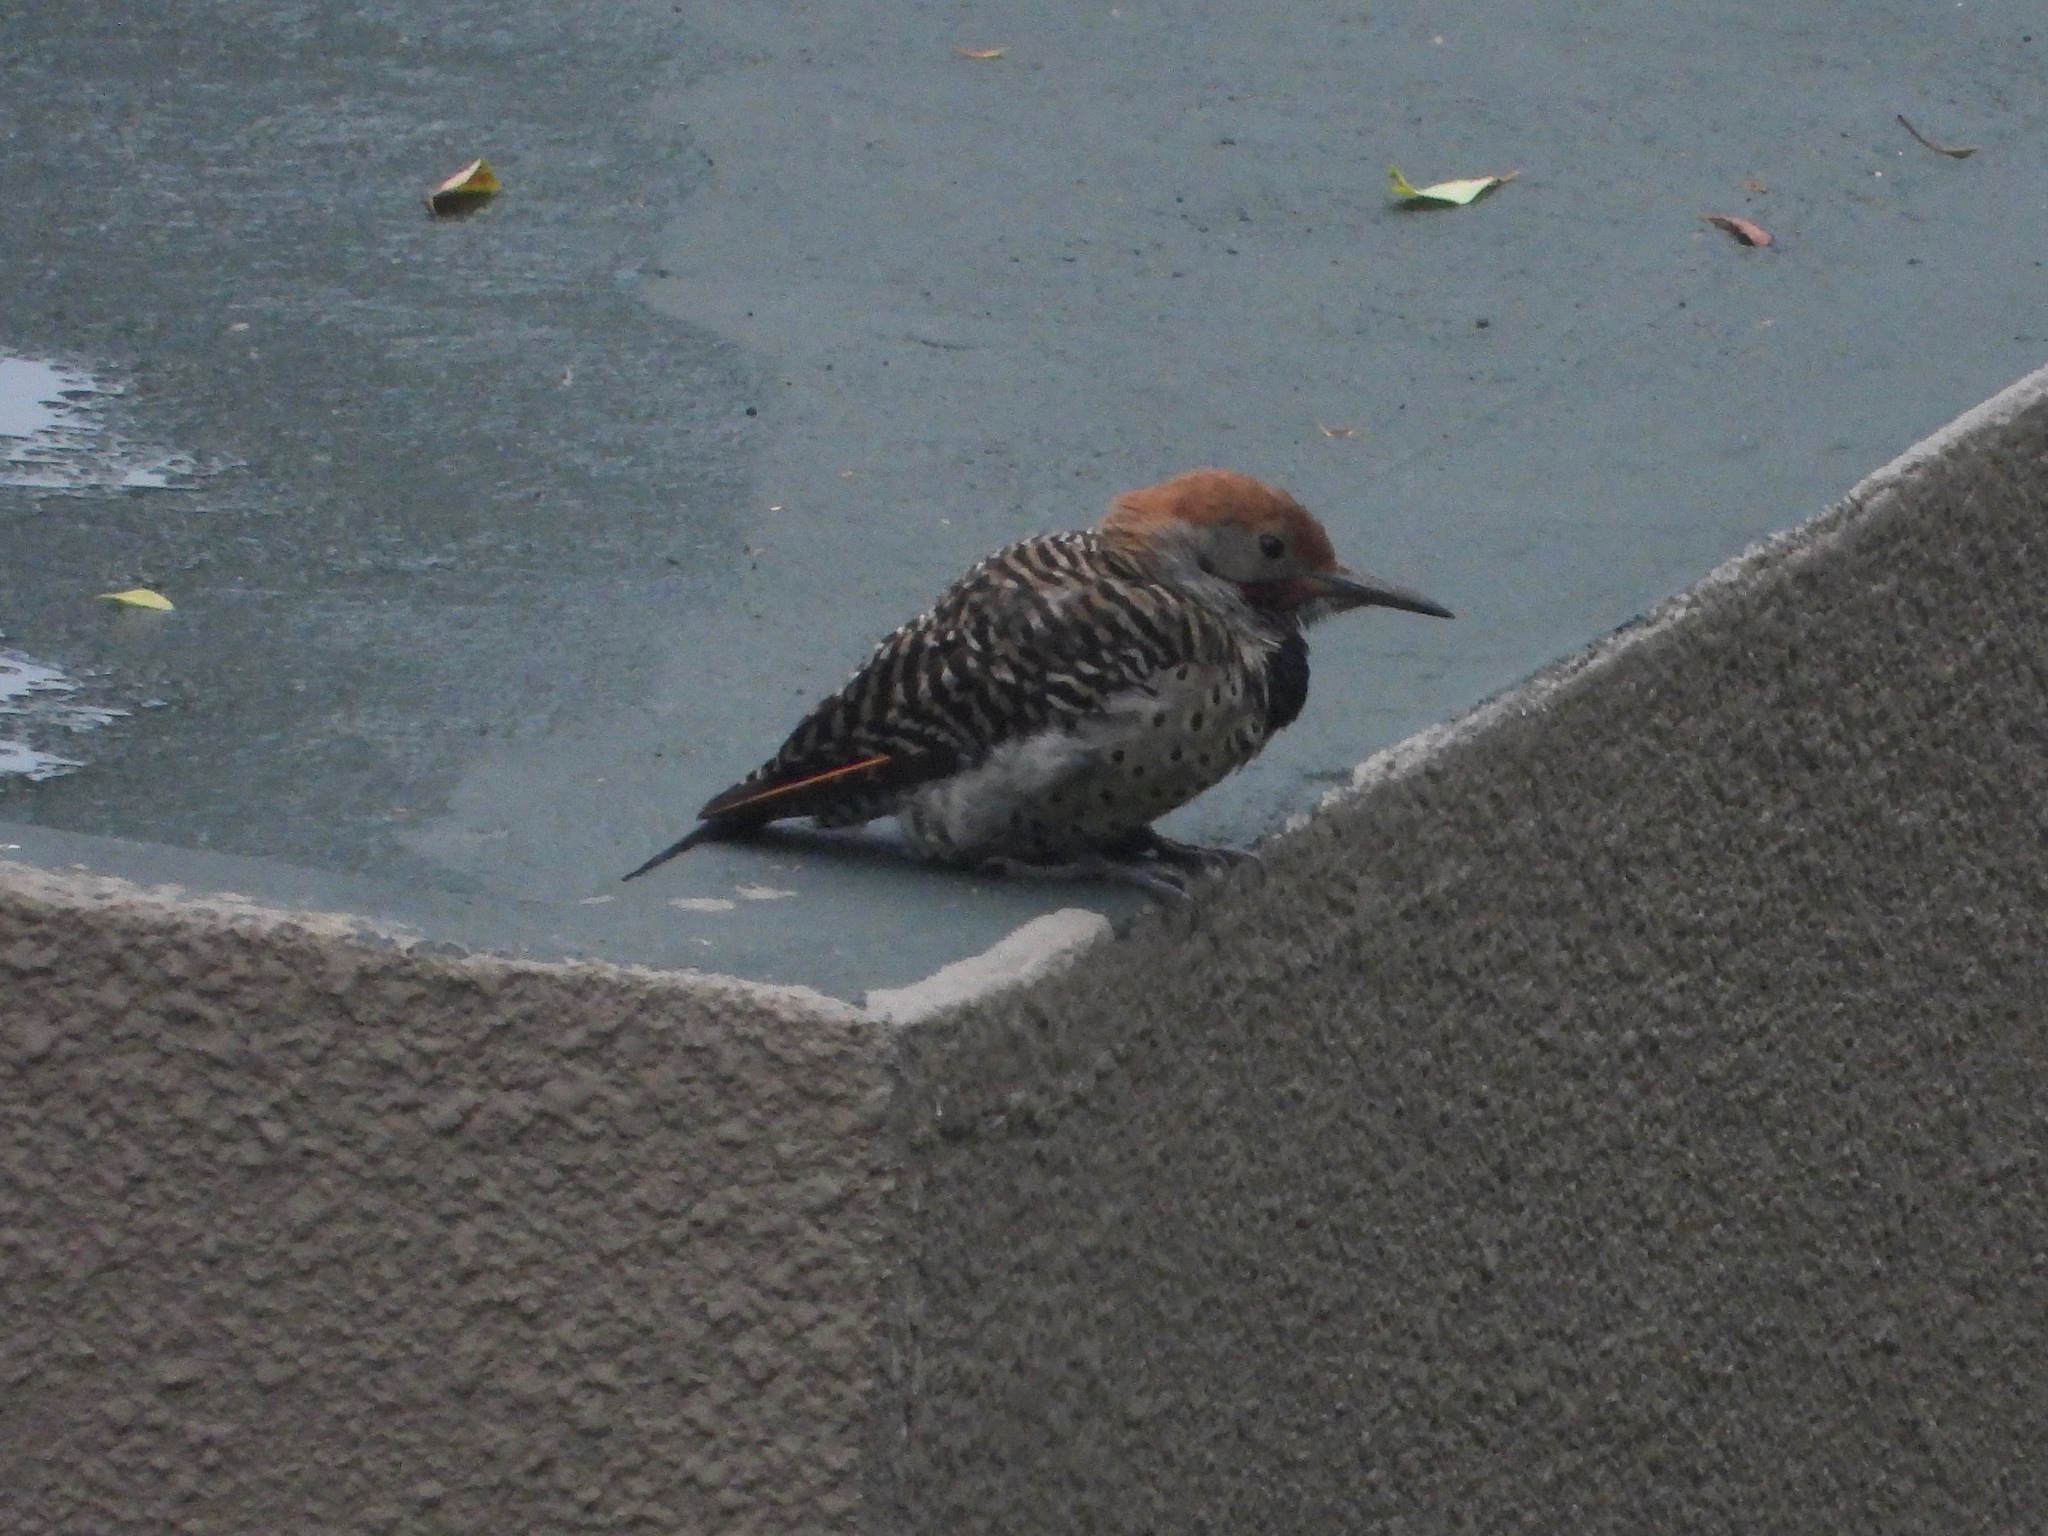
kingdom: Animalia
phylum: Chordata
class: Aves
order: Piciformes
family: Picidae
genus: Colaptes
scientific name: Colaptes auratus
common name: Northern flicker
